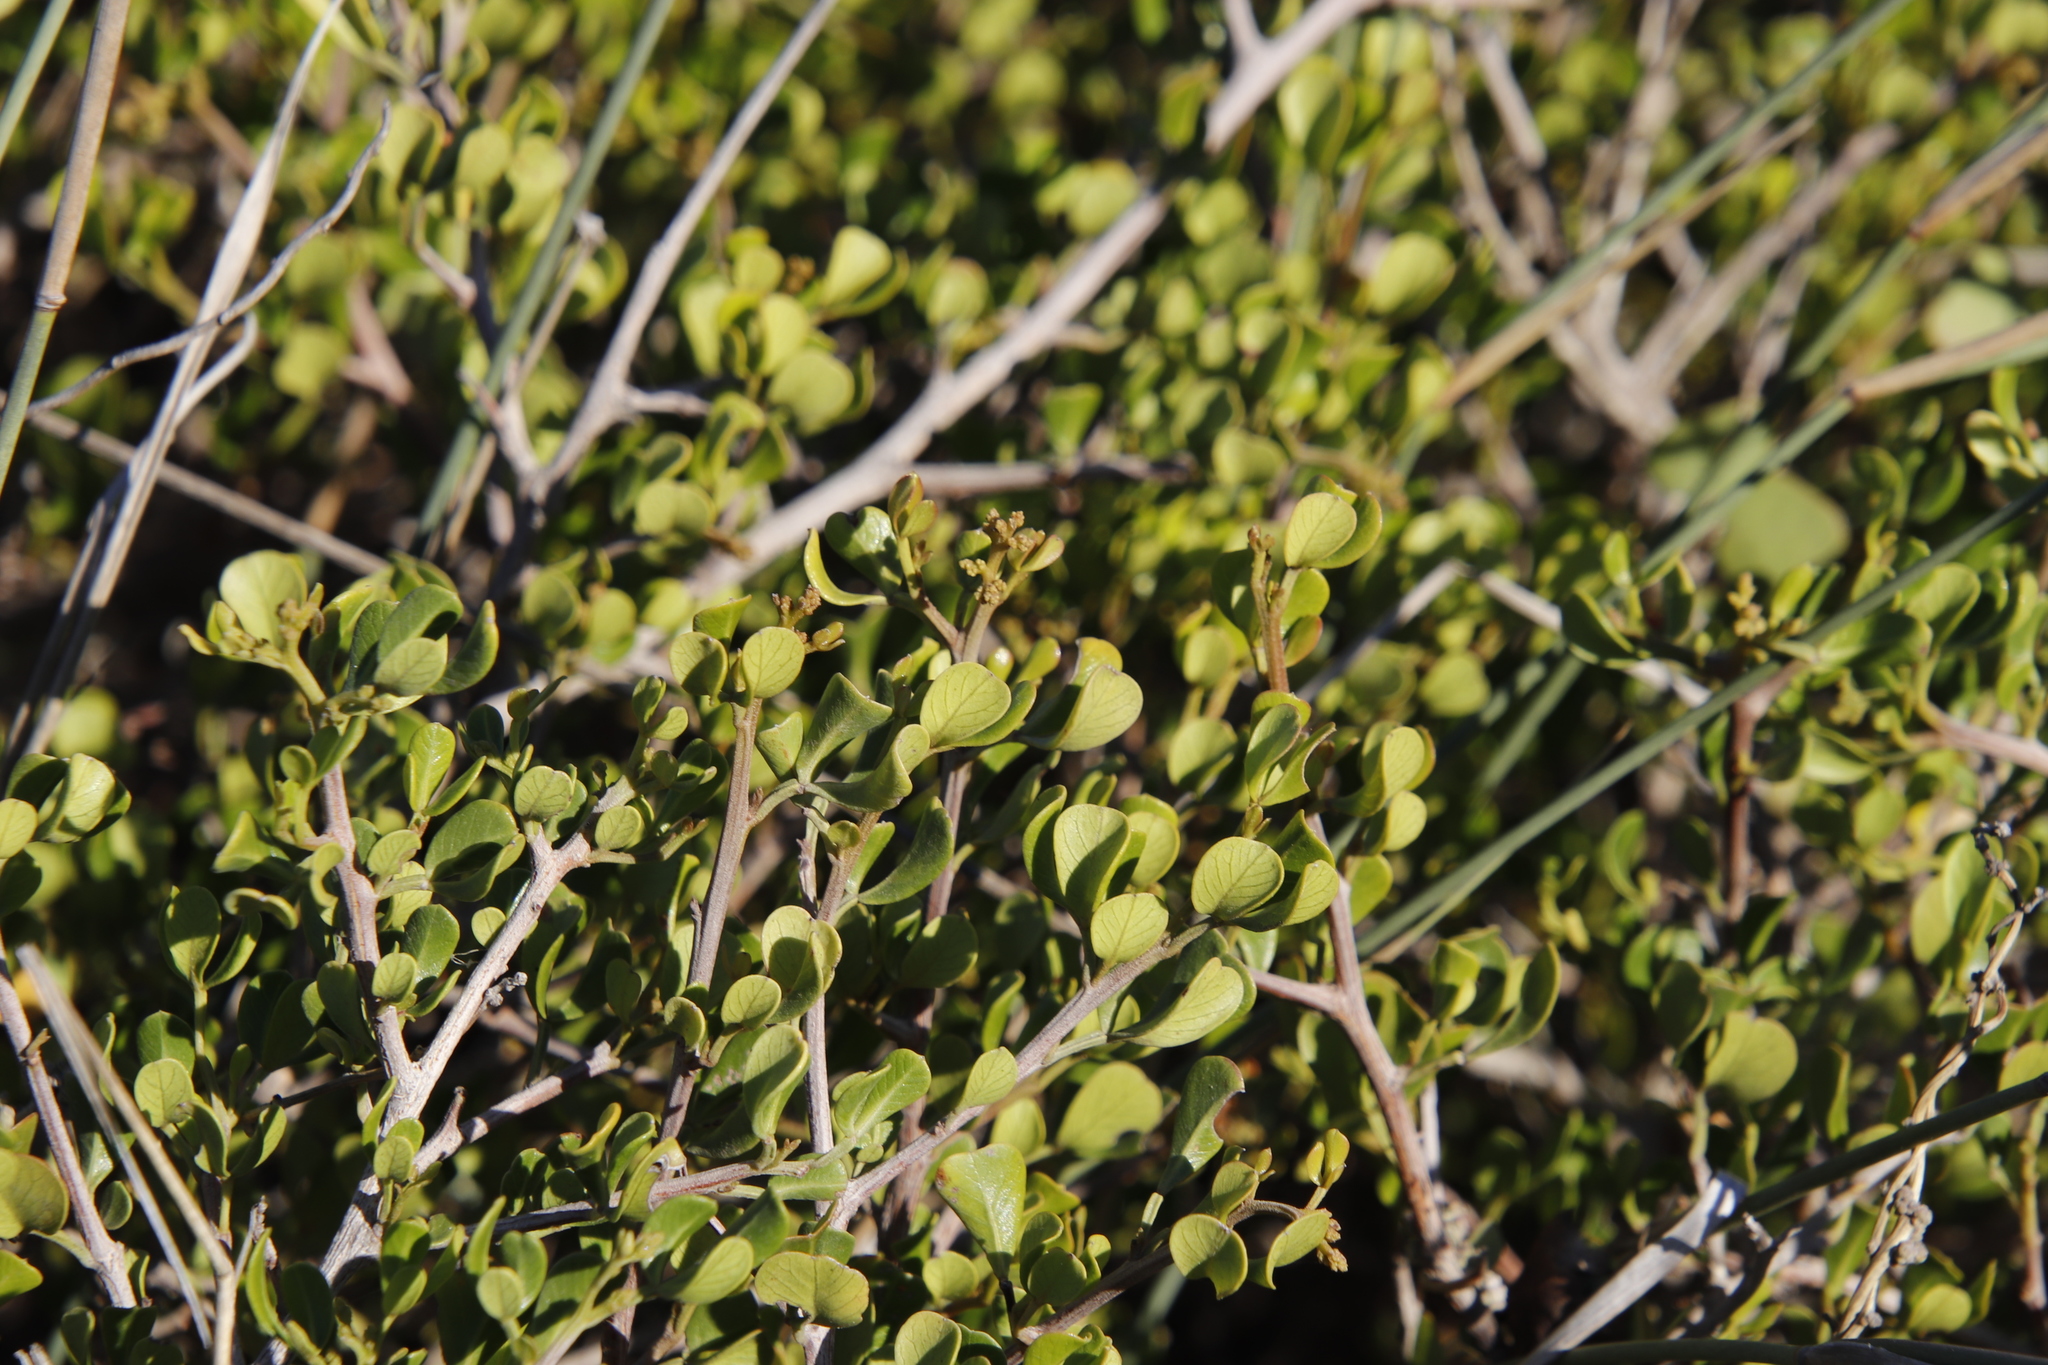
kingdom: Plantae
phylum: Tracheophyta
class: Magnoliopsida
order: Sapindales
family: Anacardiaceae
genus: Searsia
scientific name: Searsia glauca
